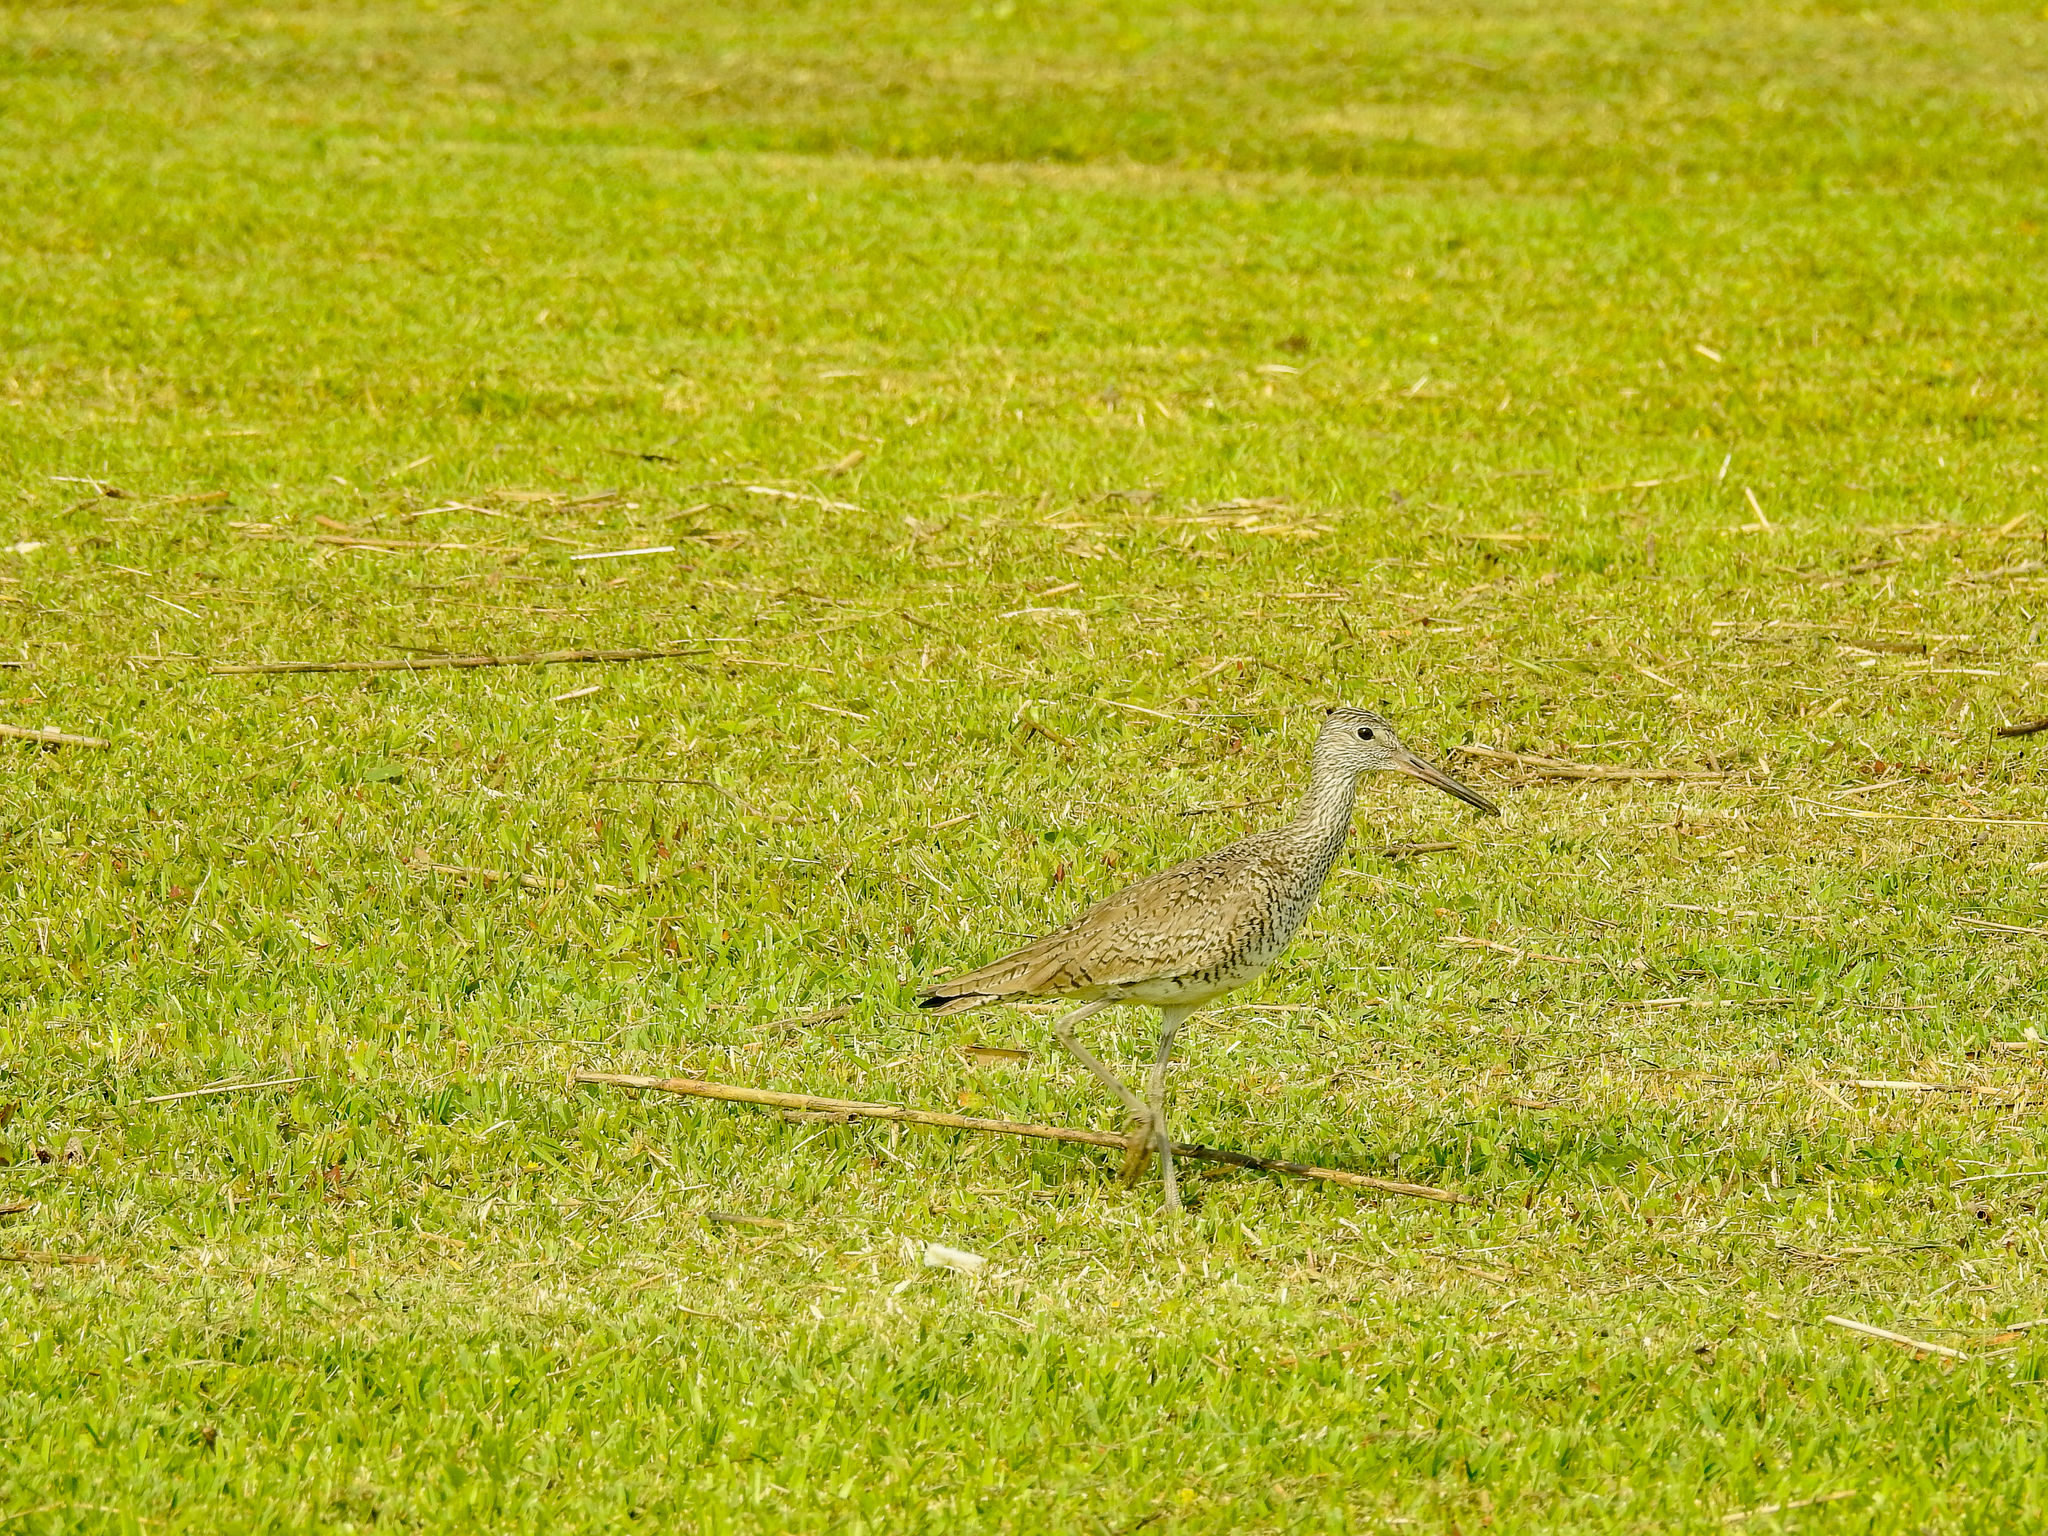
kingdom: Animalia
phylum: Chordata
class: Aves
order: Charadriiformes
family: Scolopacidae
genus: Tringa
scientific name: Tringa semipalmata
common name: Willet
